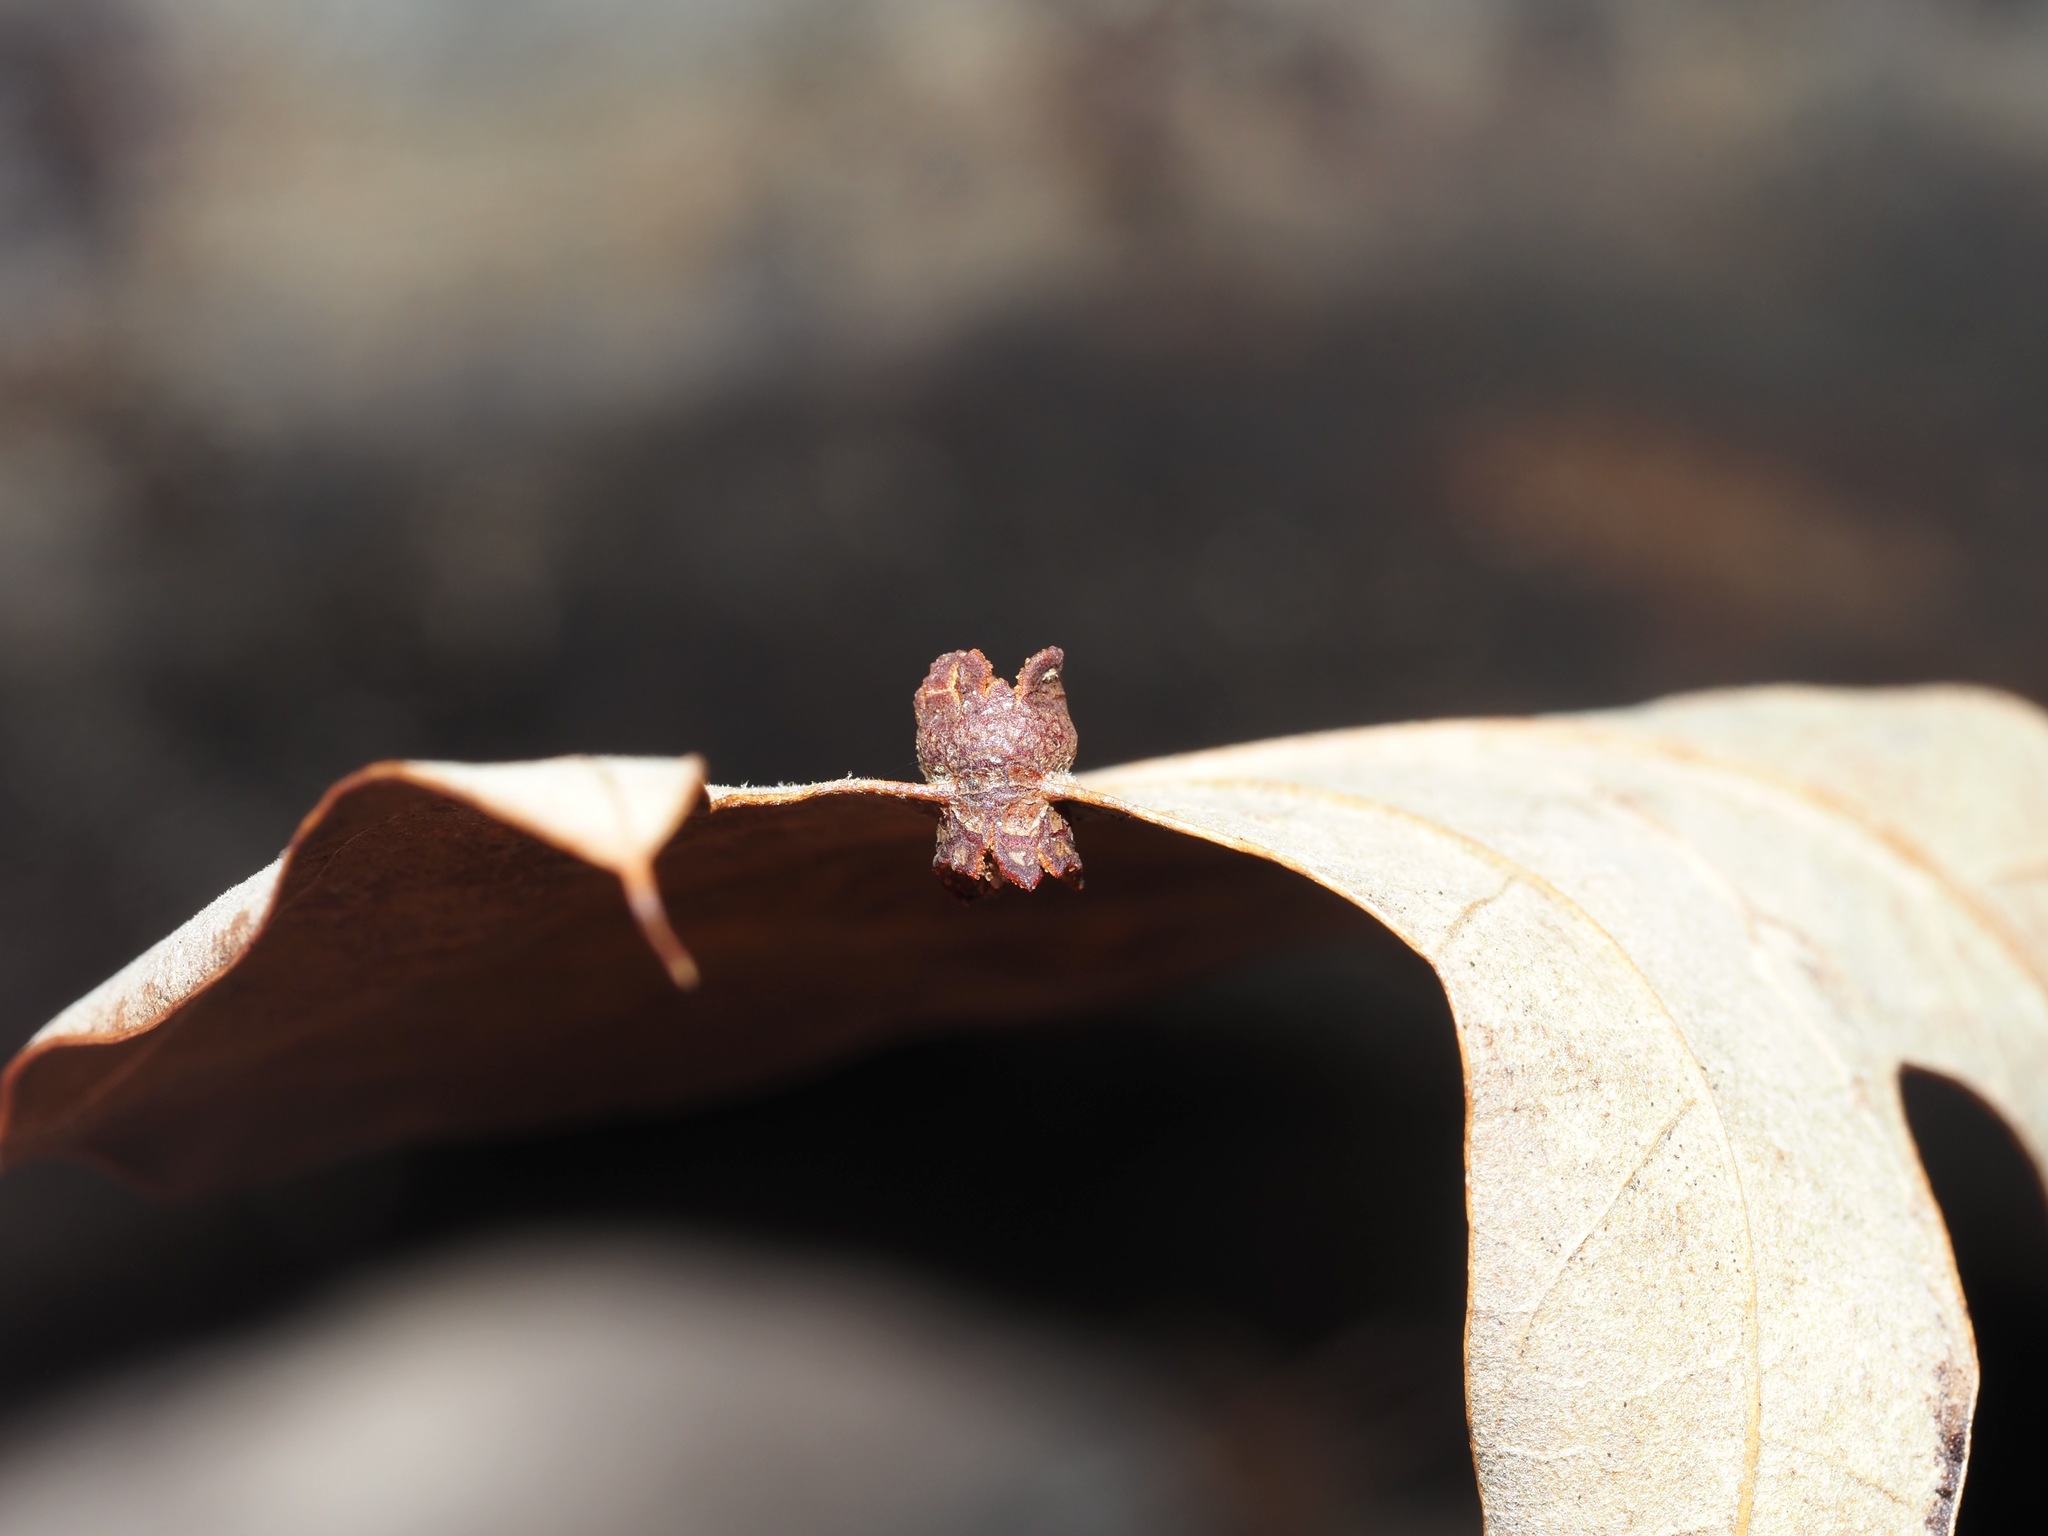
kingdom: Animalia
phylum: Arthropoda
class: Insecta
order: Diptera
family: Cecidomyiidae
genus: Polystepha
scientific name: Polystepha symmetrica
